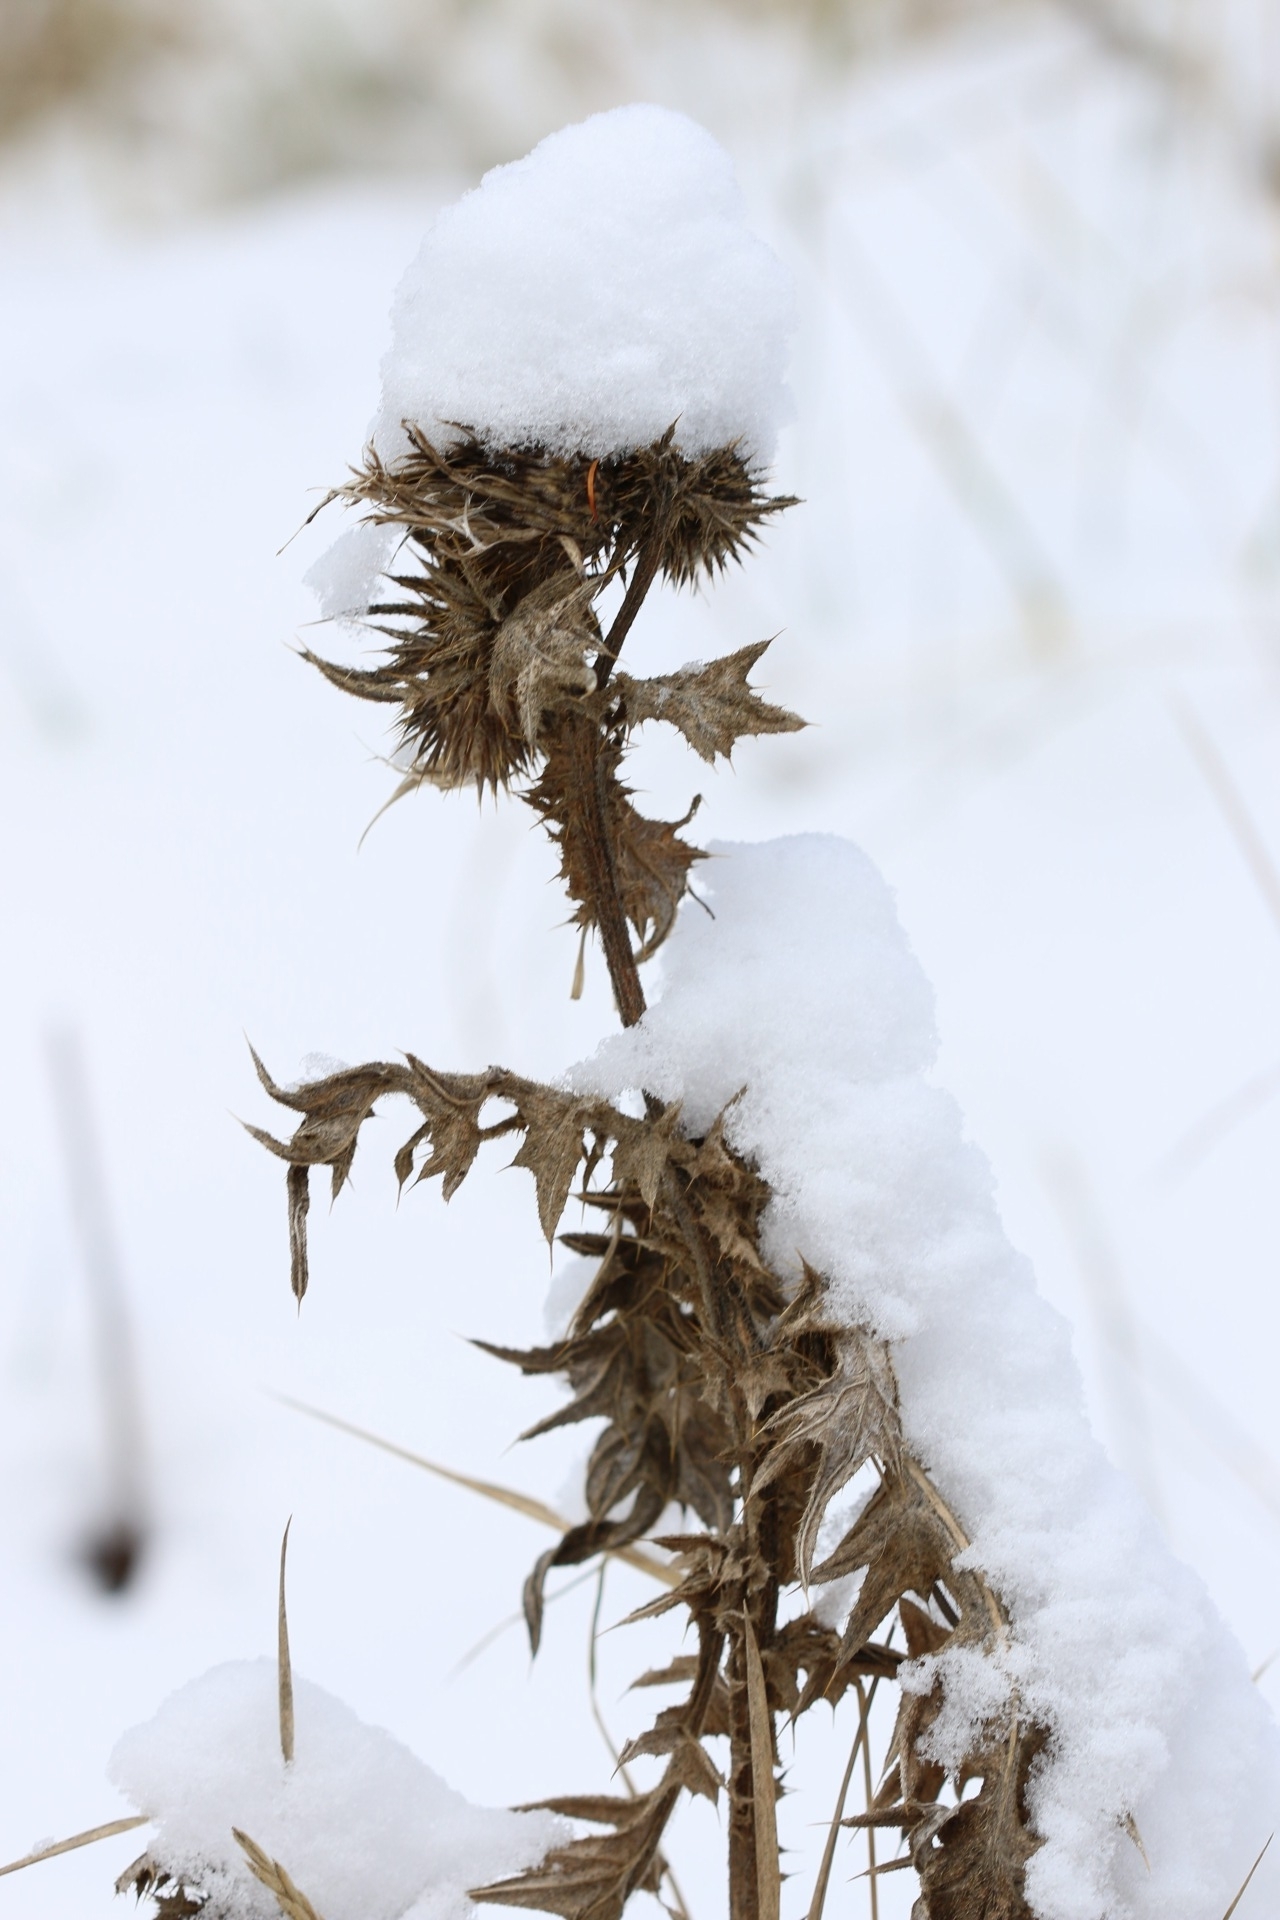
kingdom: Plantae
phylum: Tracheophyta
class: Magnoliopsida
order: Asterales
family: Asteraceae
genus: Cirsium
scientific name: Cirsium vulgare
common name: Bull thistle
